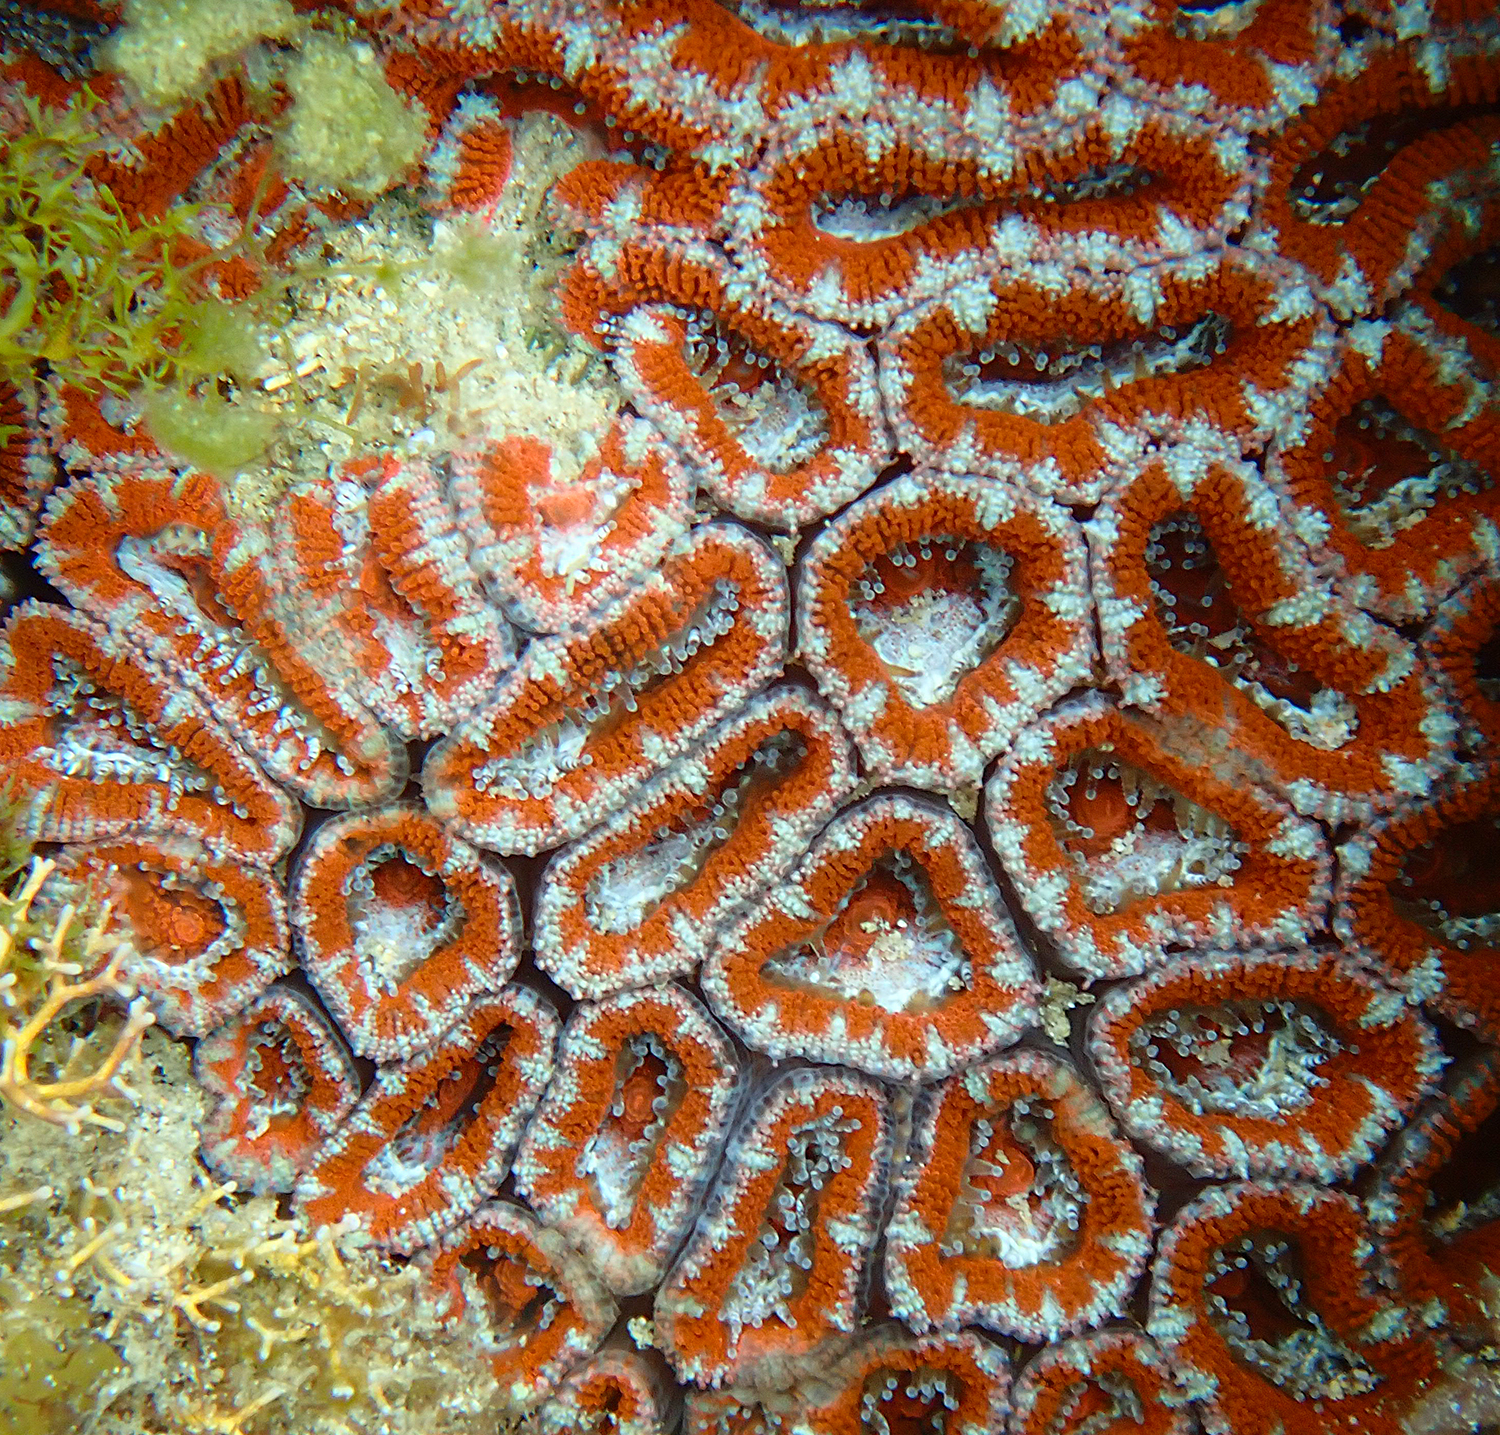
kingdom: Animalia
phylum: Cnidaria
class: Anthozoa
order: Scleractinia
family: Lobophylliidae
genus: Micromussa
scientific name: Micromussa lordhowensis
